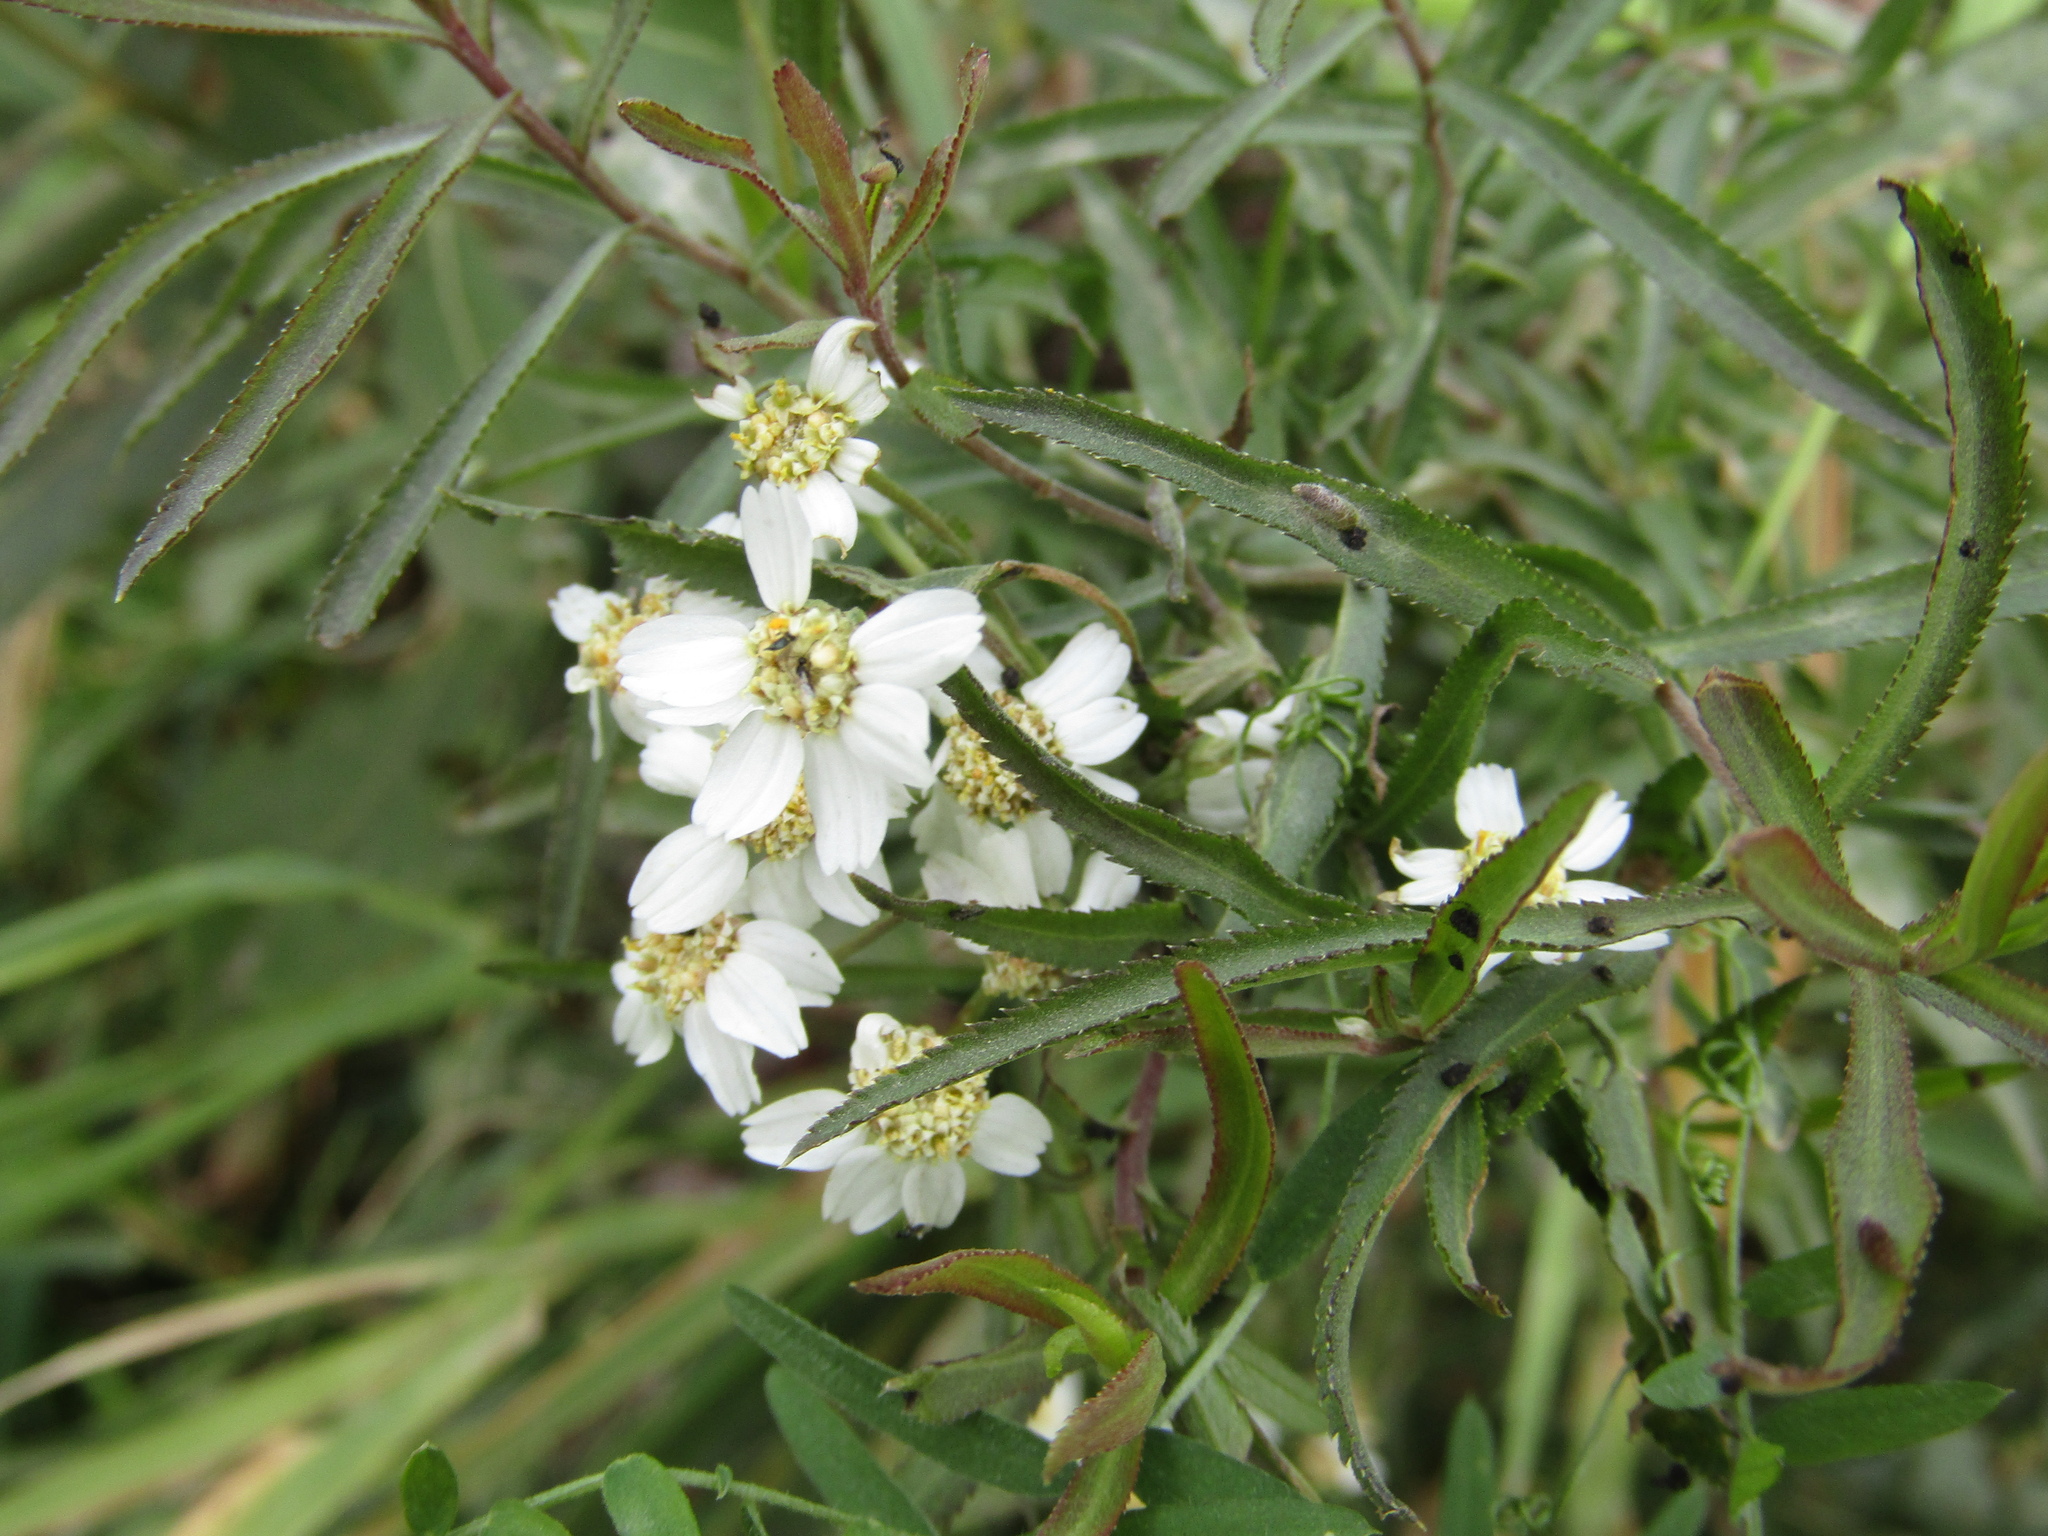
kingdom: Plantae
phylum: Tracheophyta
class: Magnoliopsida
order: Asterales
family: Asteraceae
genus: Achillea
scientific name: Achillea salicifolia
